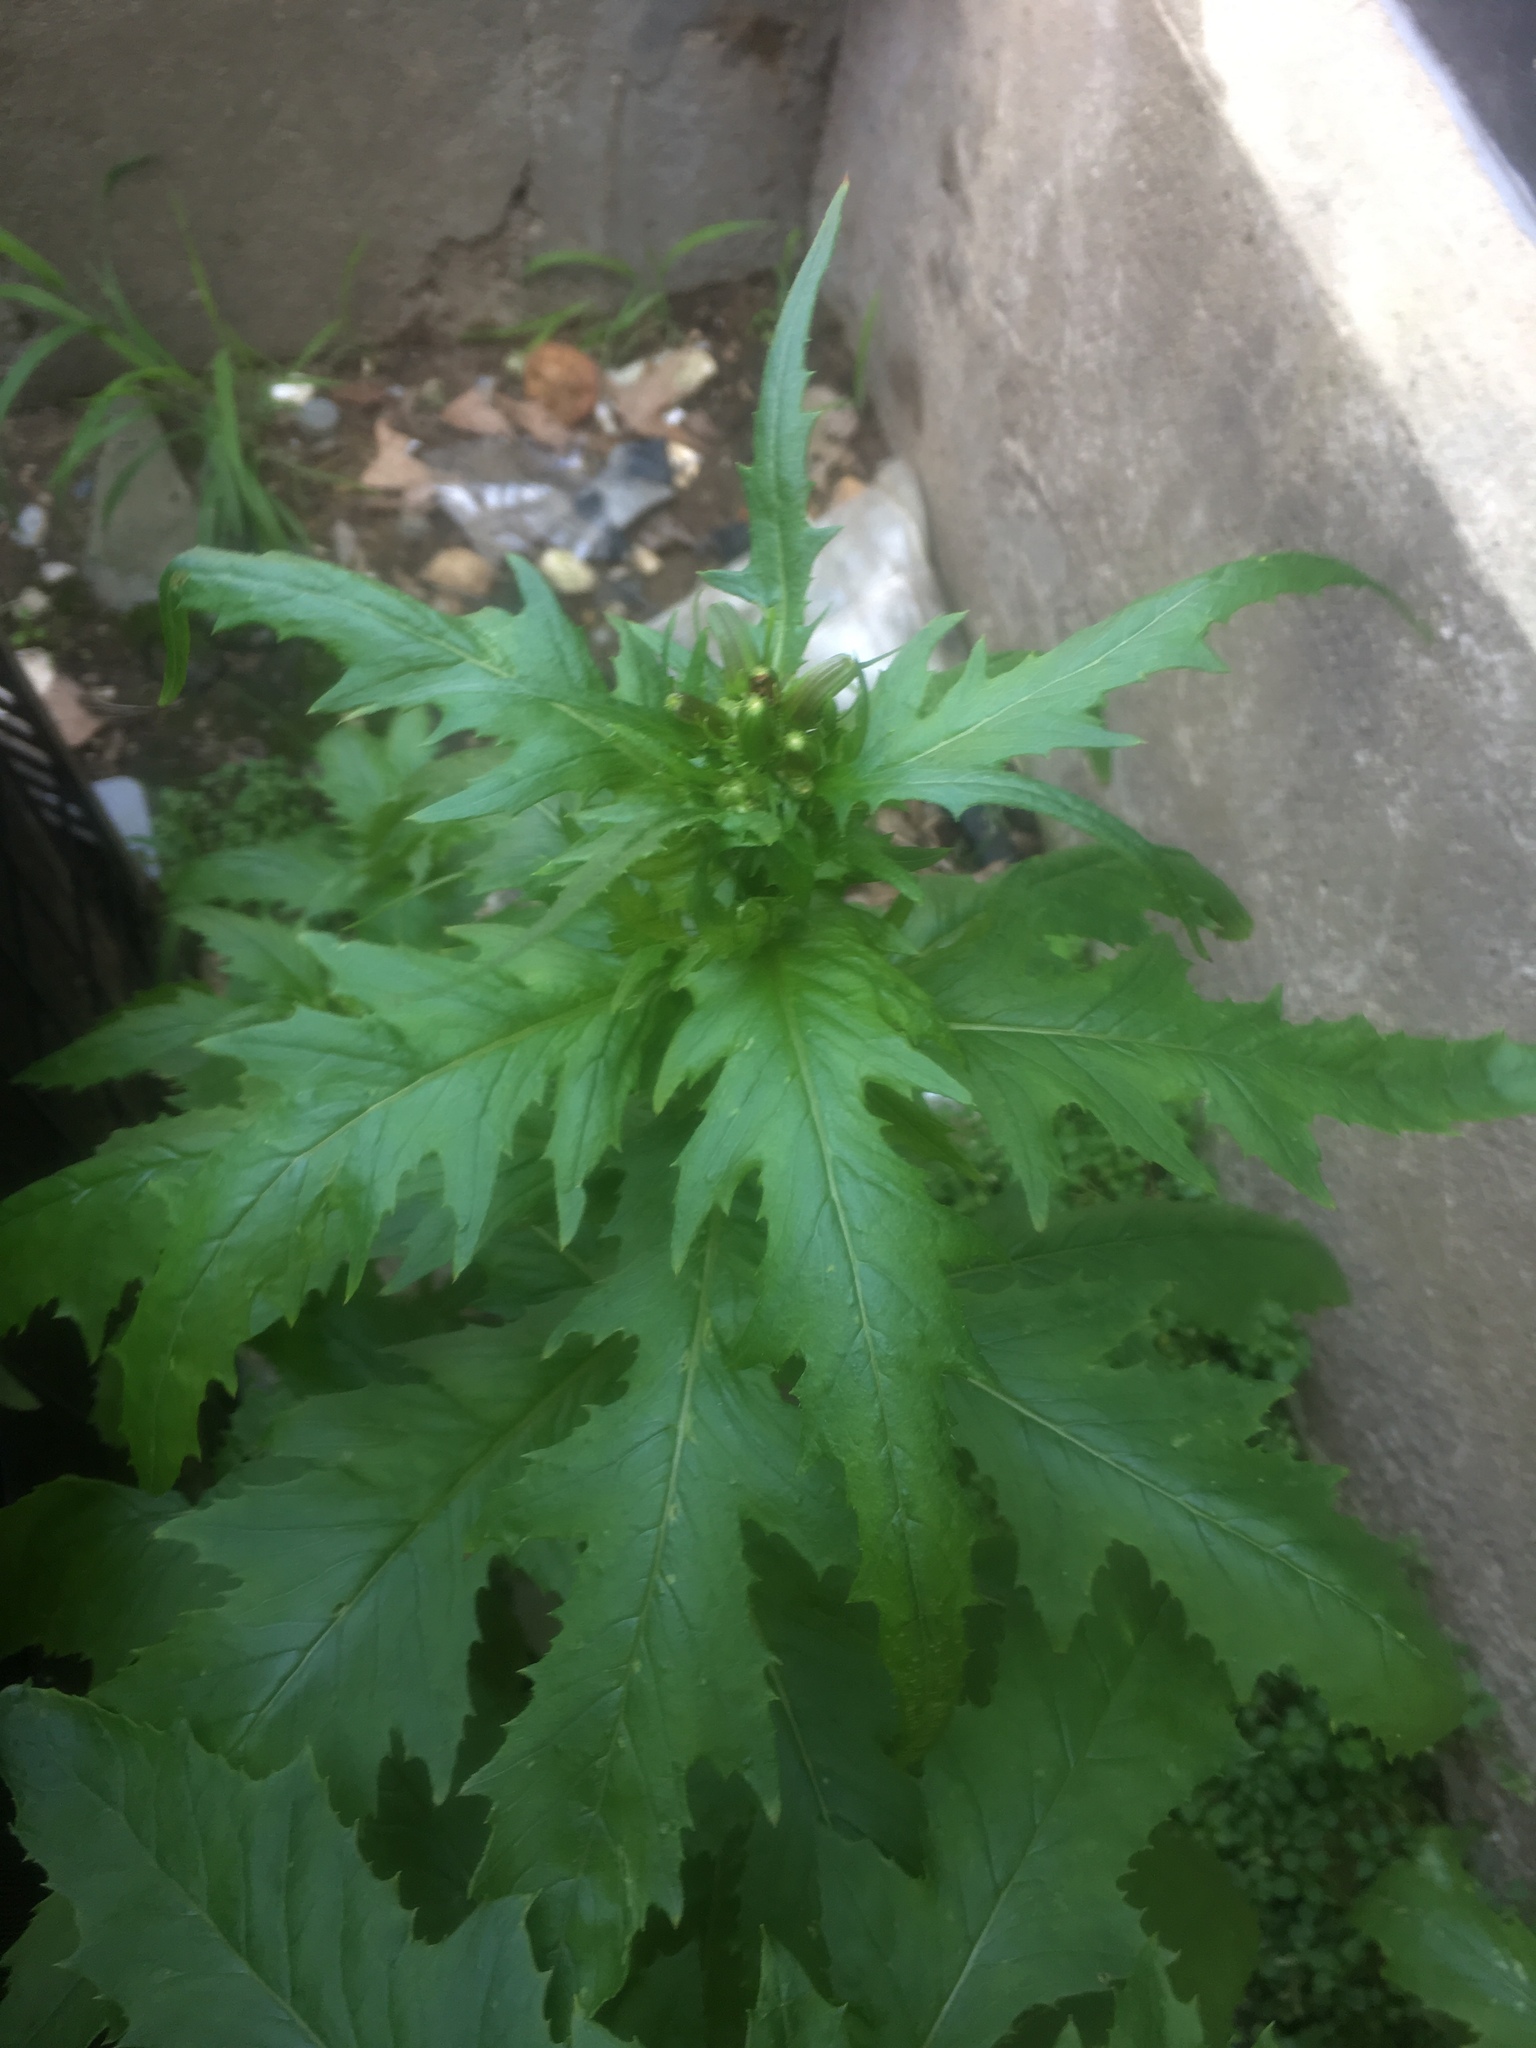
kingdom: Plantae
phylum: Tracheophyta
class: Magnoliopsida
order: Asterales
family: Asteraceae
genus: Erechtites
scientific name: Erechtites hieraciifolius
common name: American burnweed
